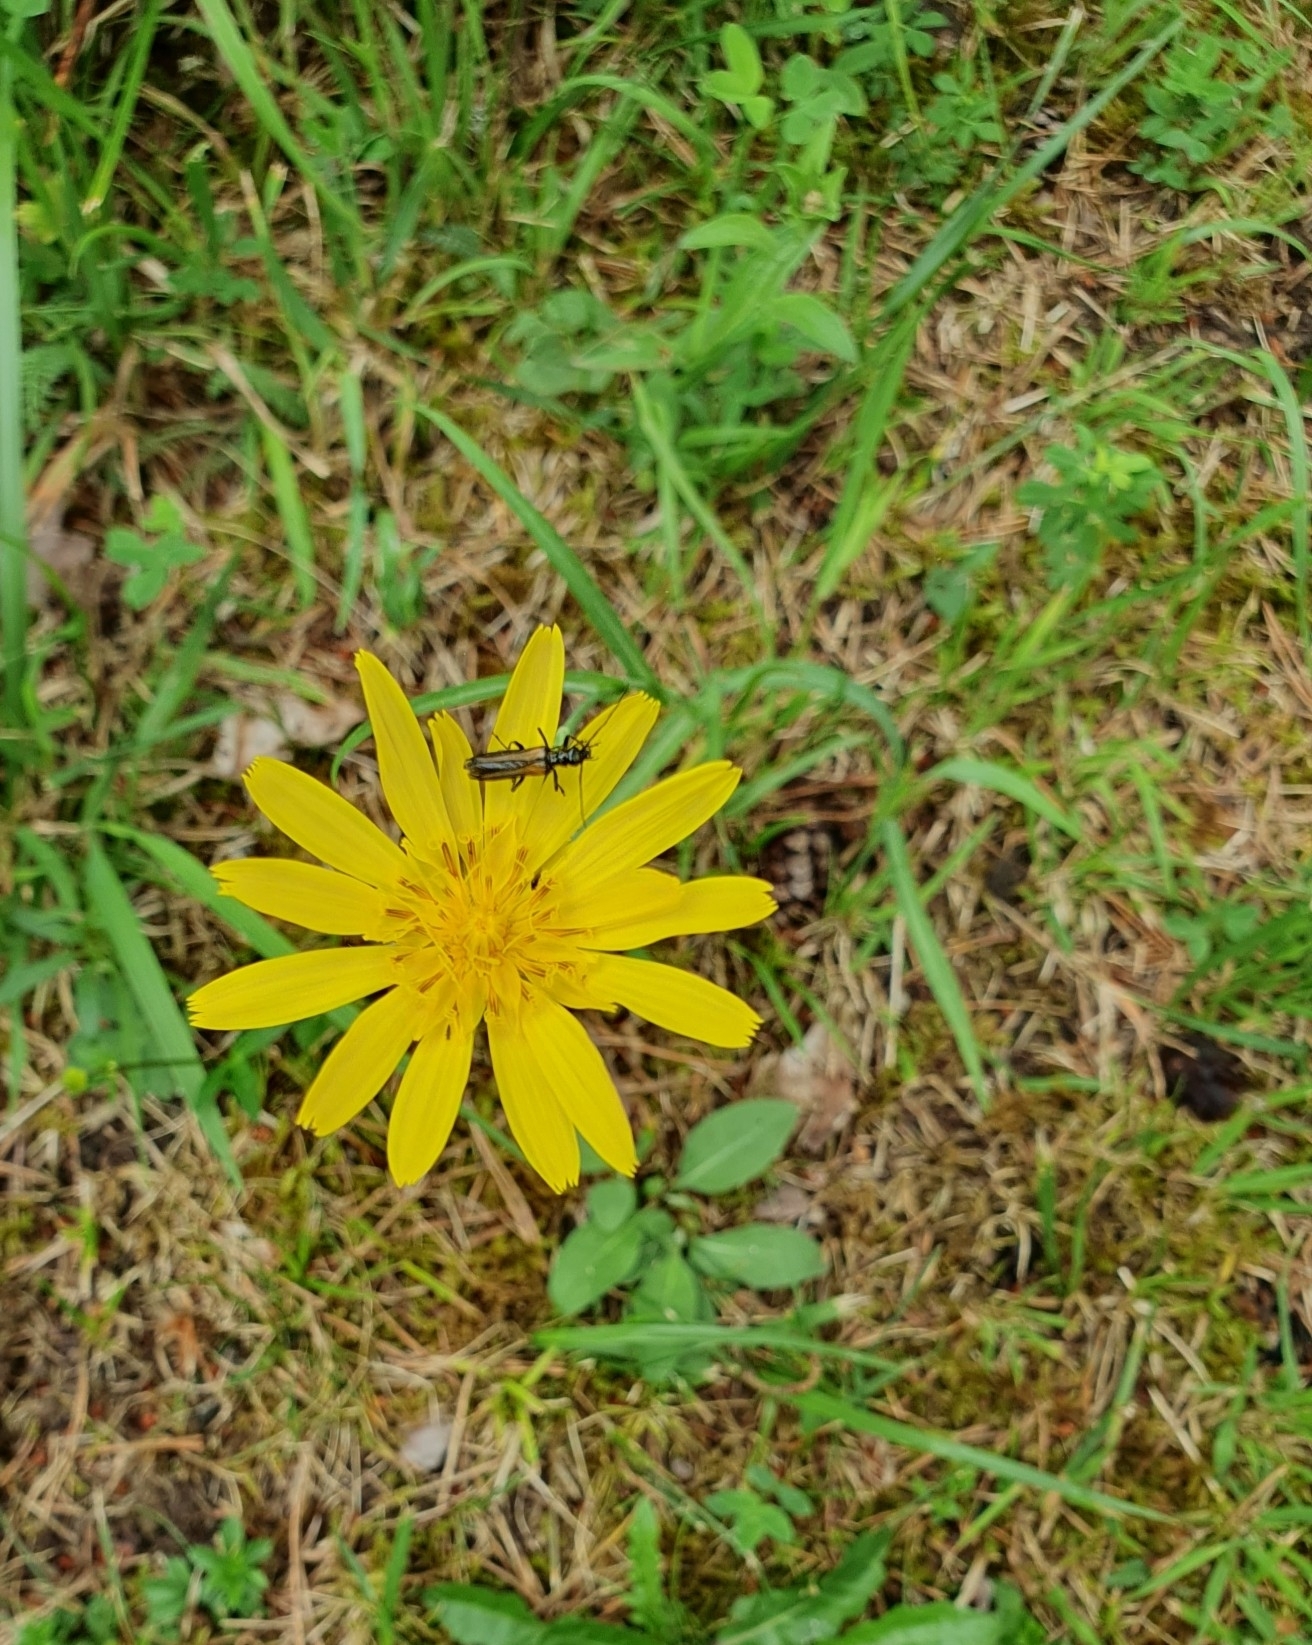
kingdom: Plantae
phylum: Tracheophyta
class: Magnoliopsida
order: Asterales
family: Asteraceae
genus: Tragopogon
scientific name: Tragopogon orientalis
